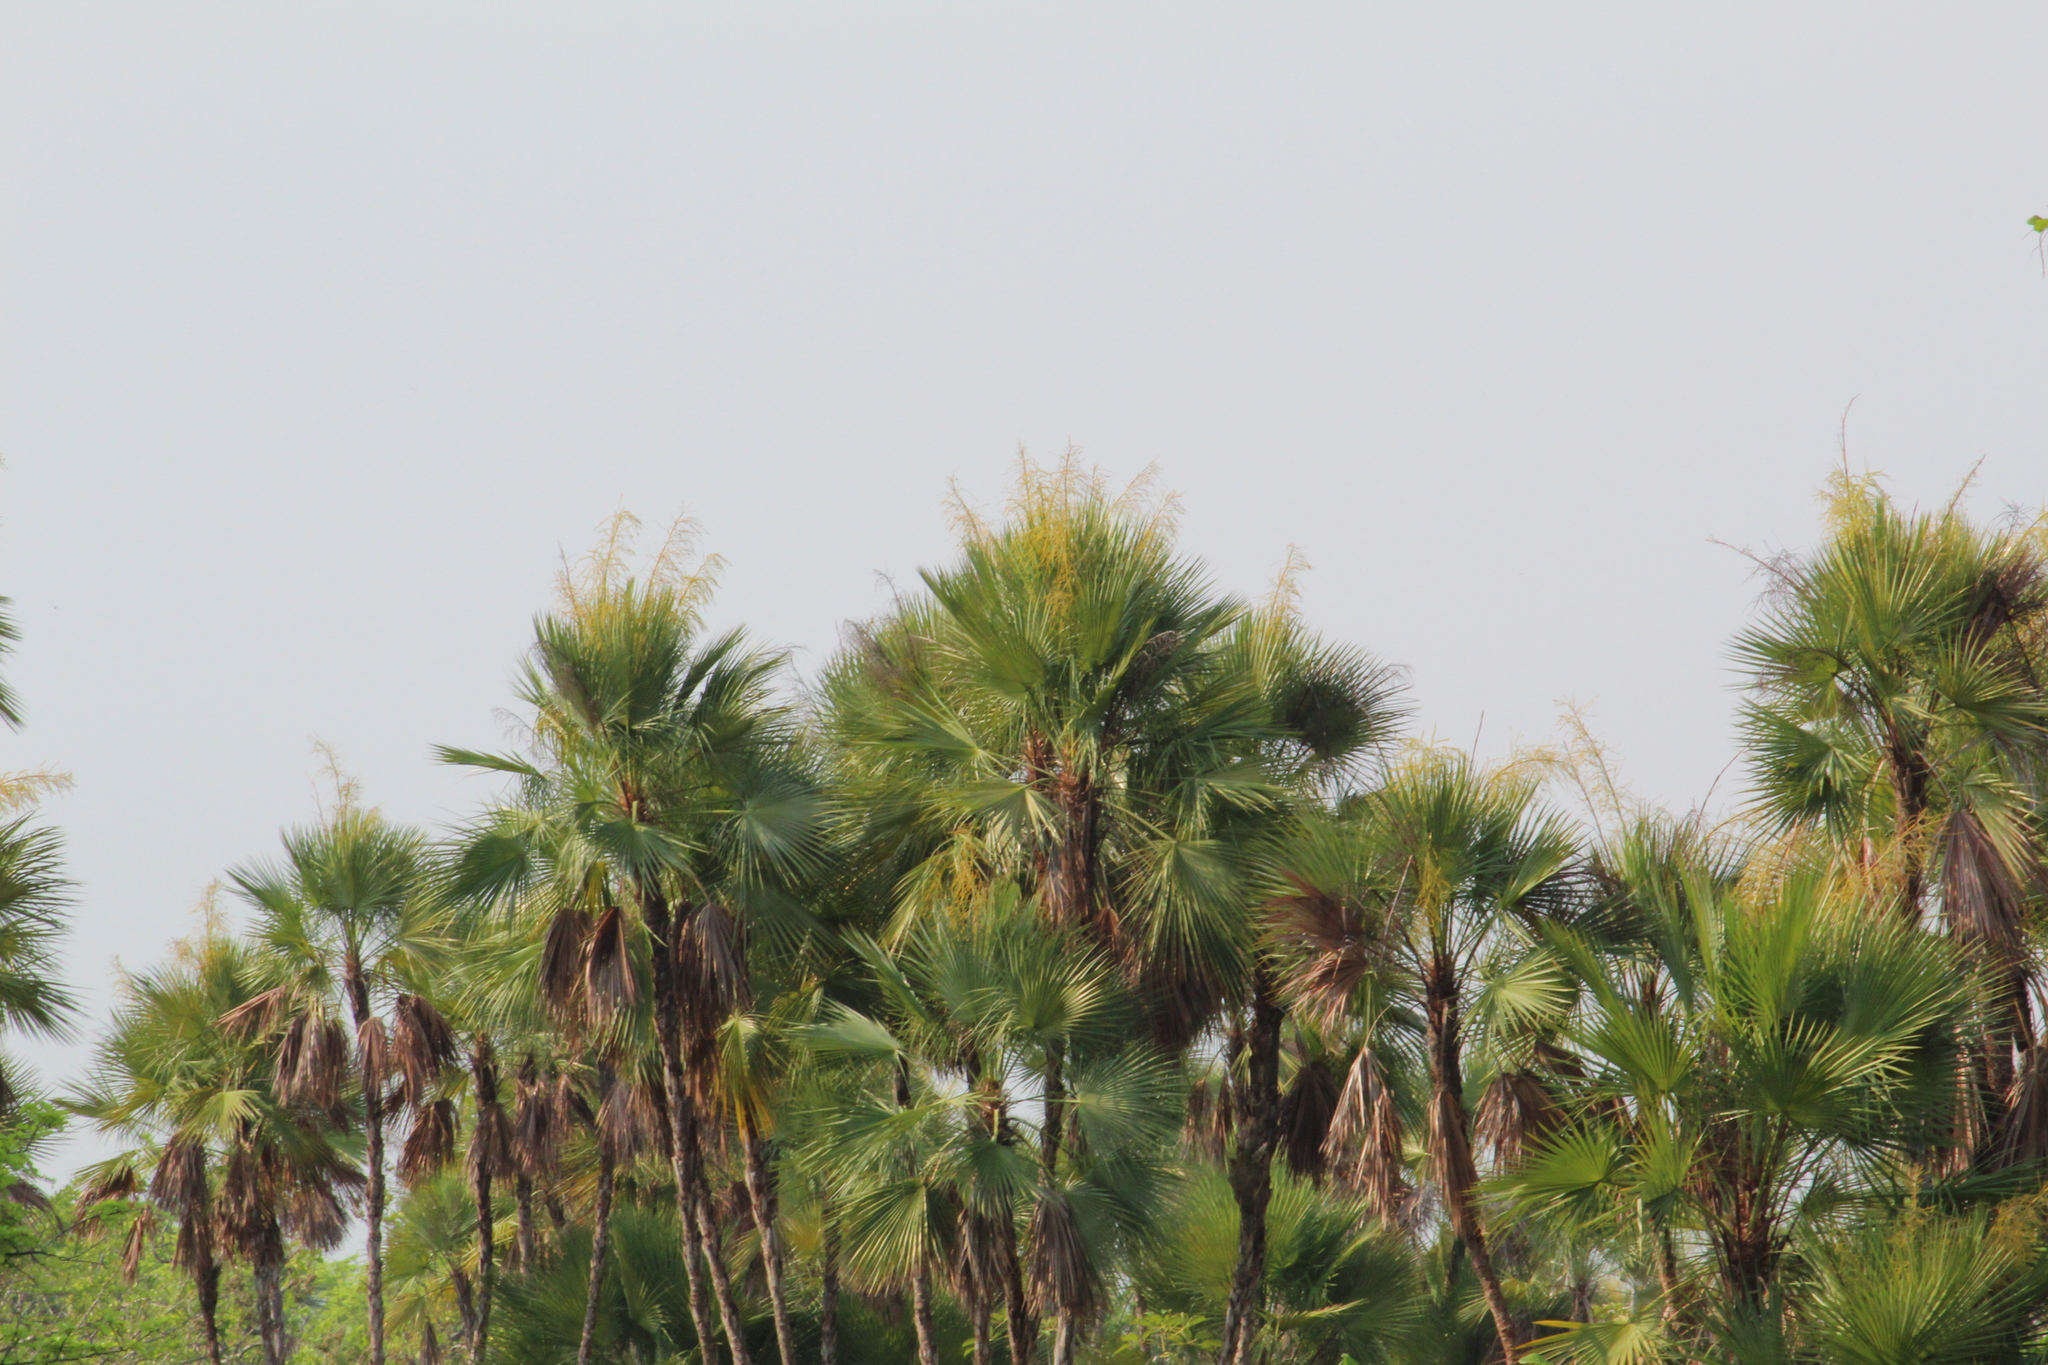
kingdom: Plantae
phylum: Tracheophyta
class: Liliopsida
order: Arecales
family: Arecaceae
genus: Acoelorraphe
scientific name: Acoelorraphe wrightii
